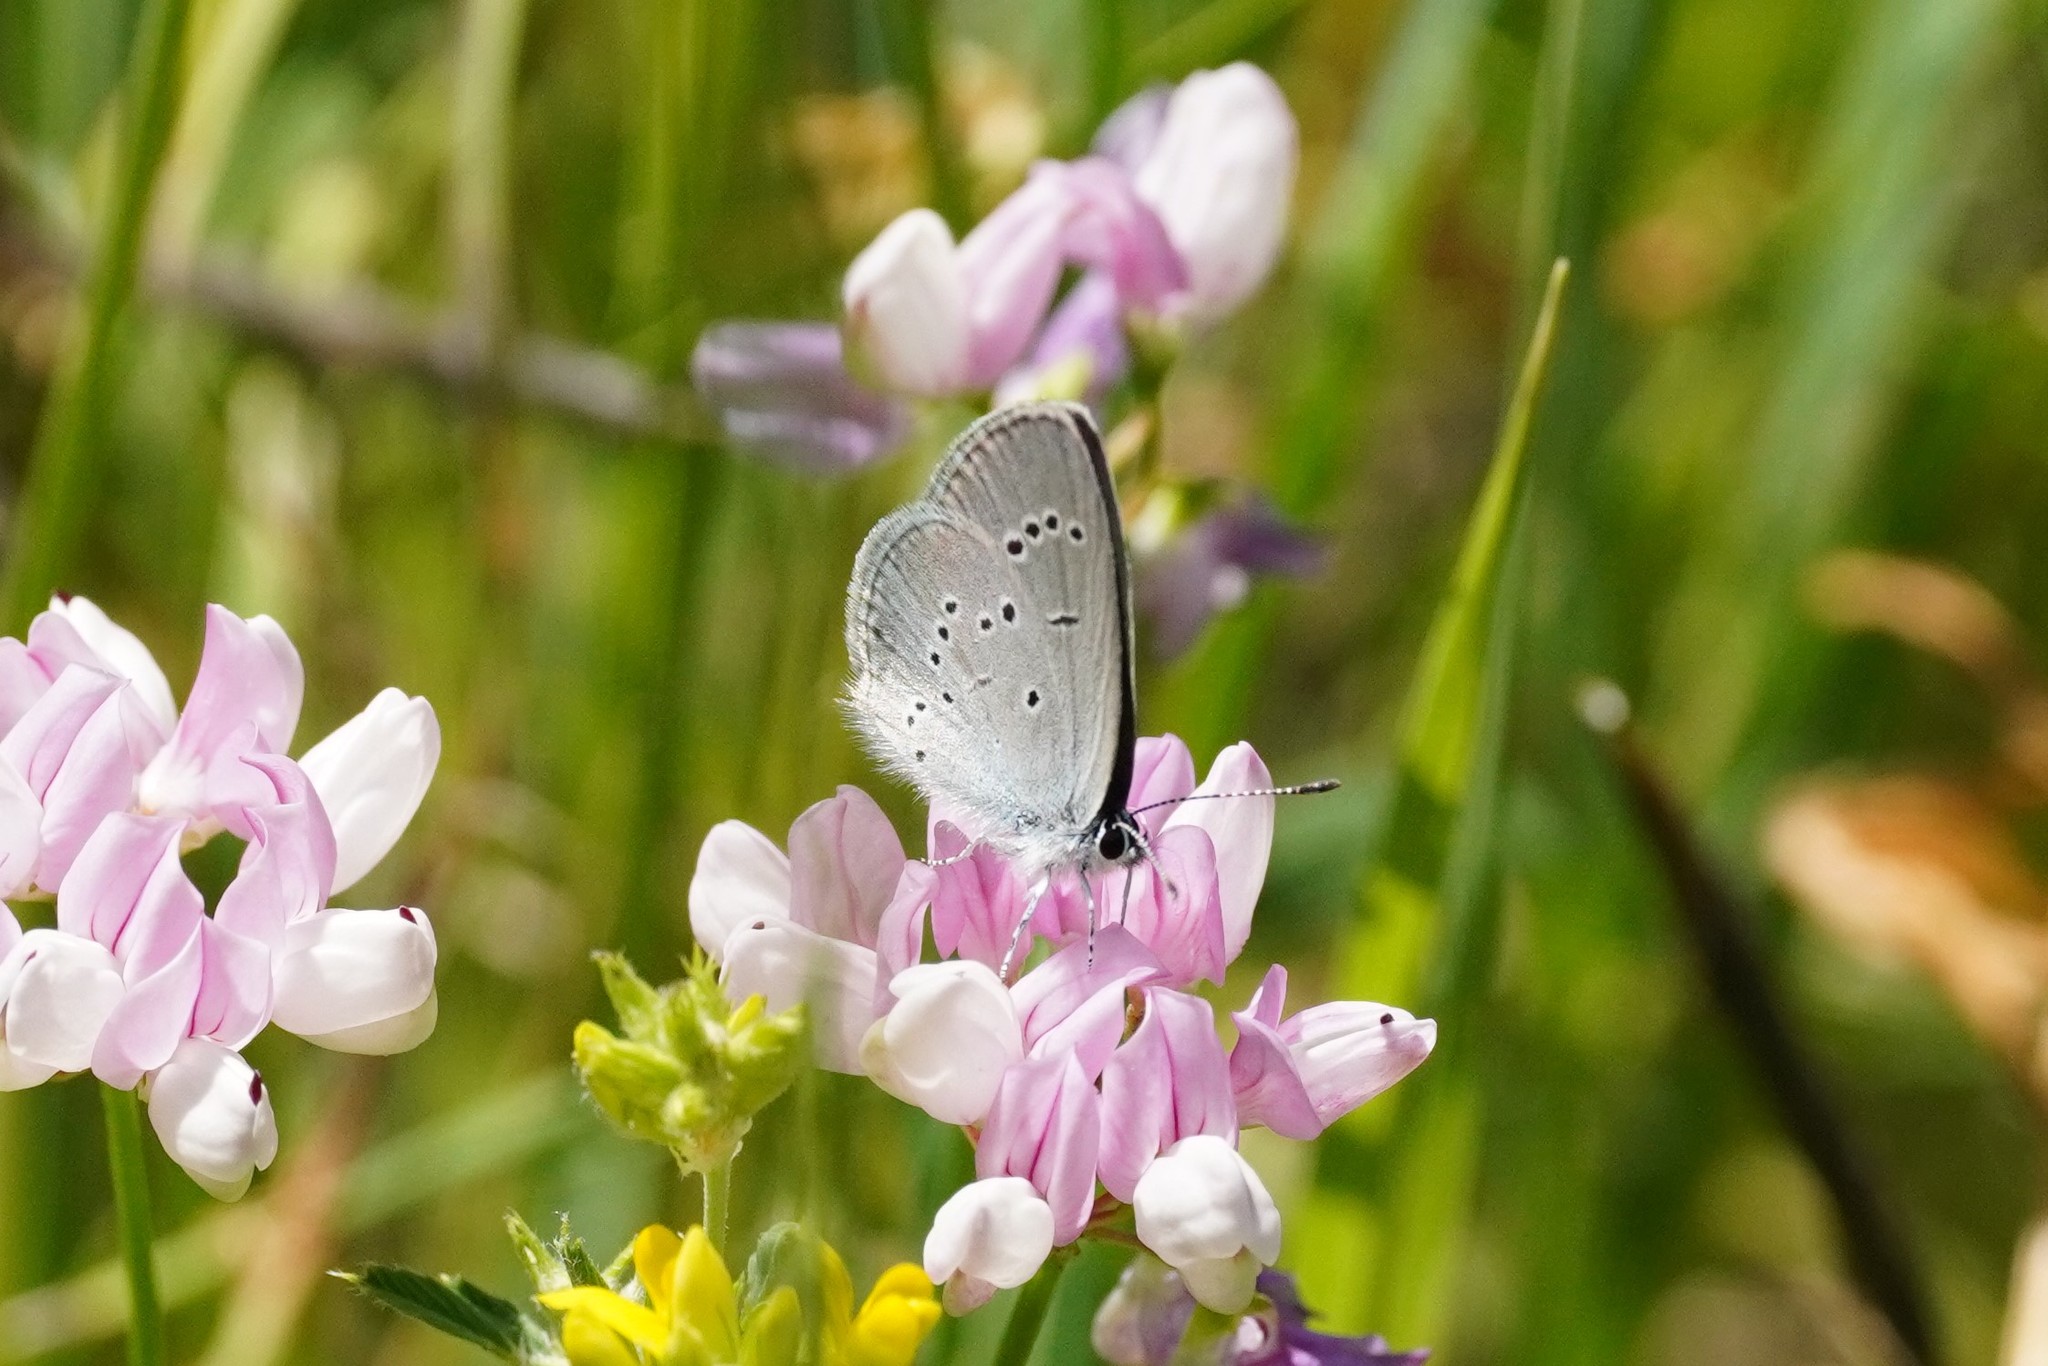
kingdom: Animalia
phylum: Arthropoda
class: Insecta
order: Lepidoptera
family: Lycaenidae
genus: Cupido
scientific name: Cupido minimus
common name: Small blue
